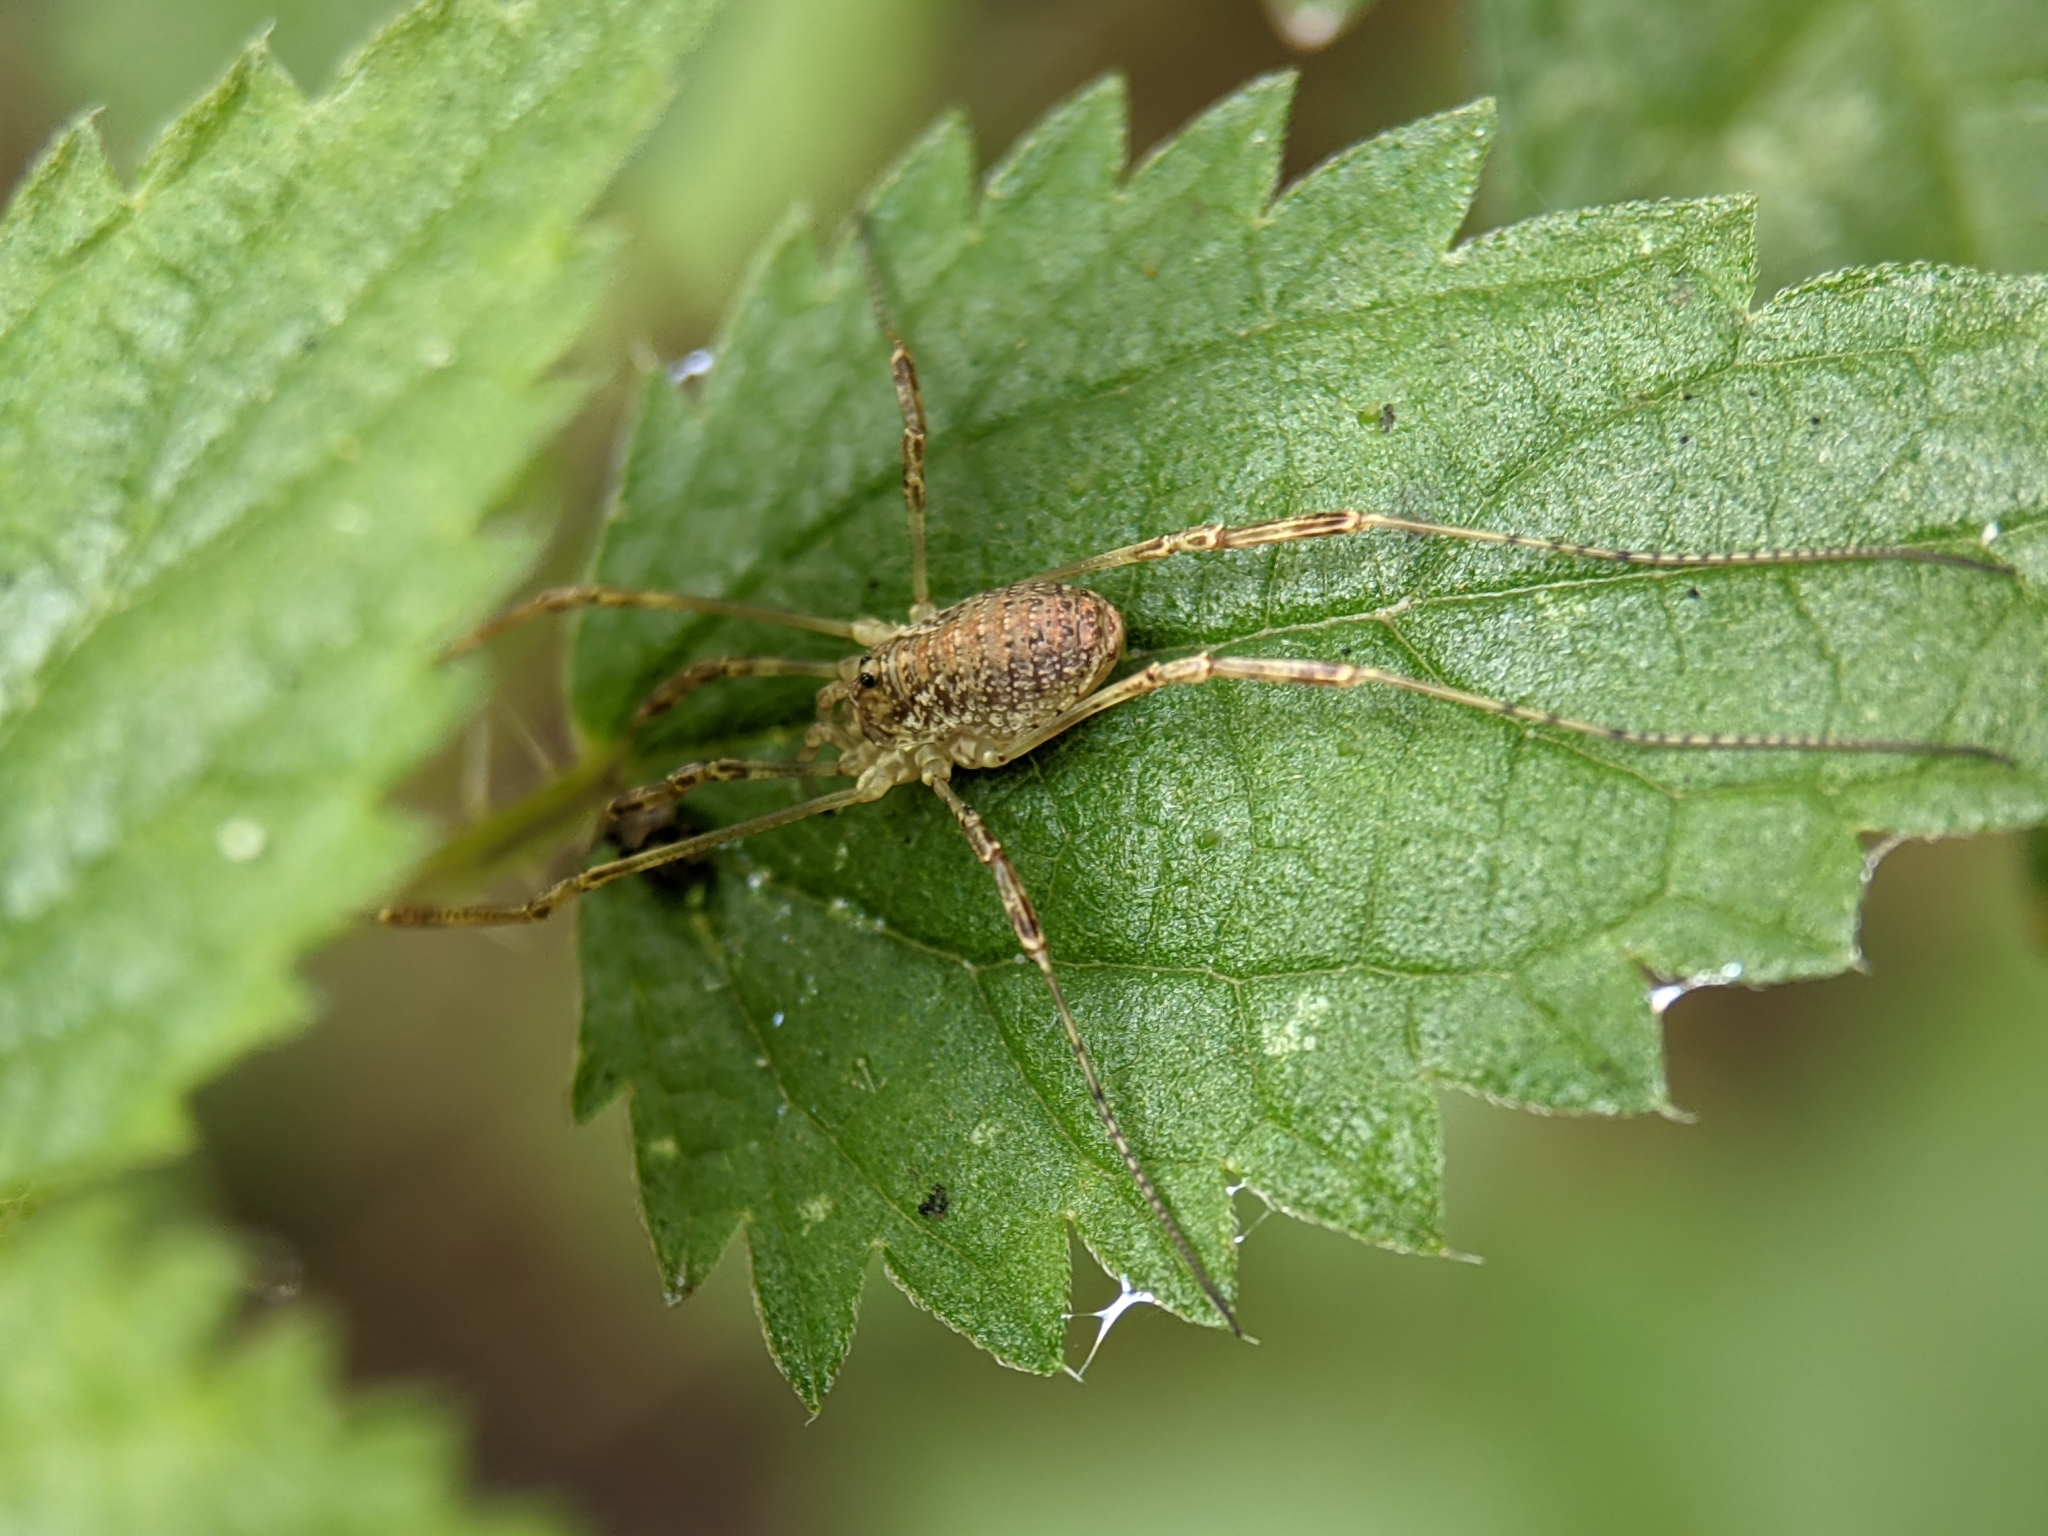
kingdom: Animalia
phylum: Arthropoda
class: Arachnida
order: Opiliones
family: Phalangiidae
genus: Paroligolophus
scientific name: Paroligolophus agrestis
